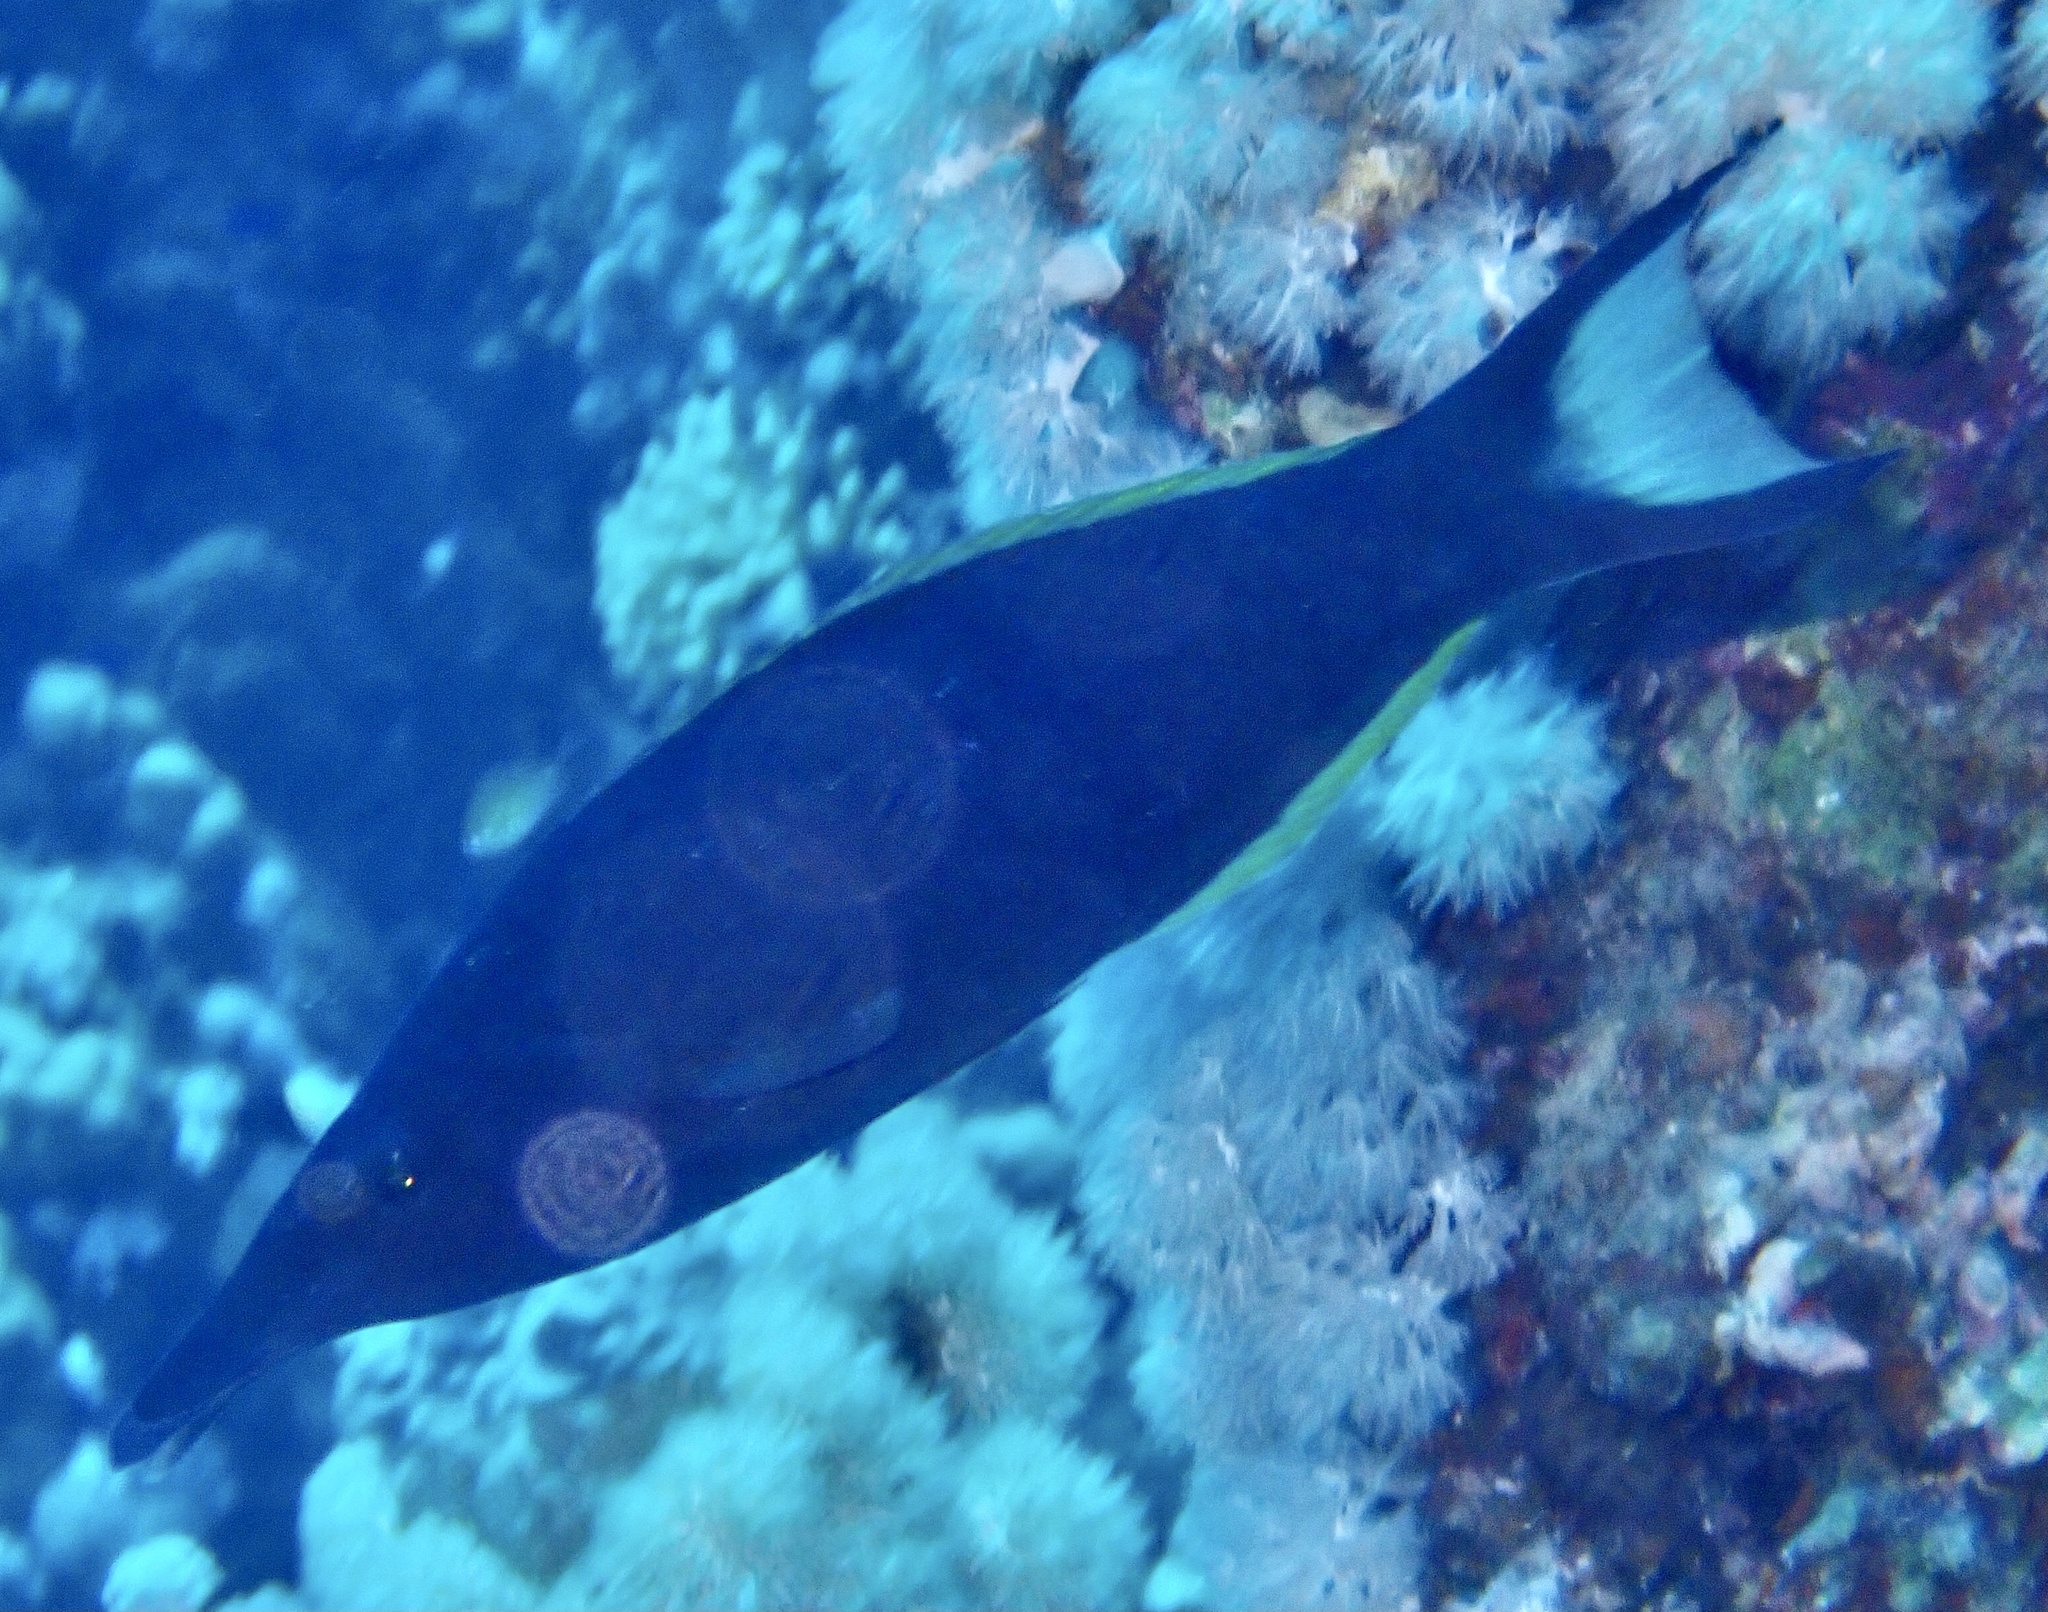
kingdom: Animalia
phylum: Chordata
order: Perciformes
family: Labridae
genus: Gomphosus
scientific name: Gomphosus klunzingeri
